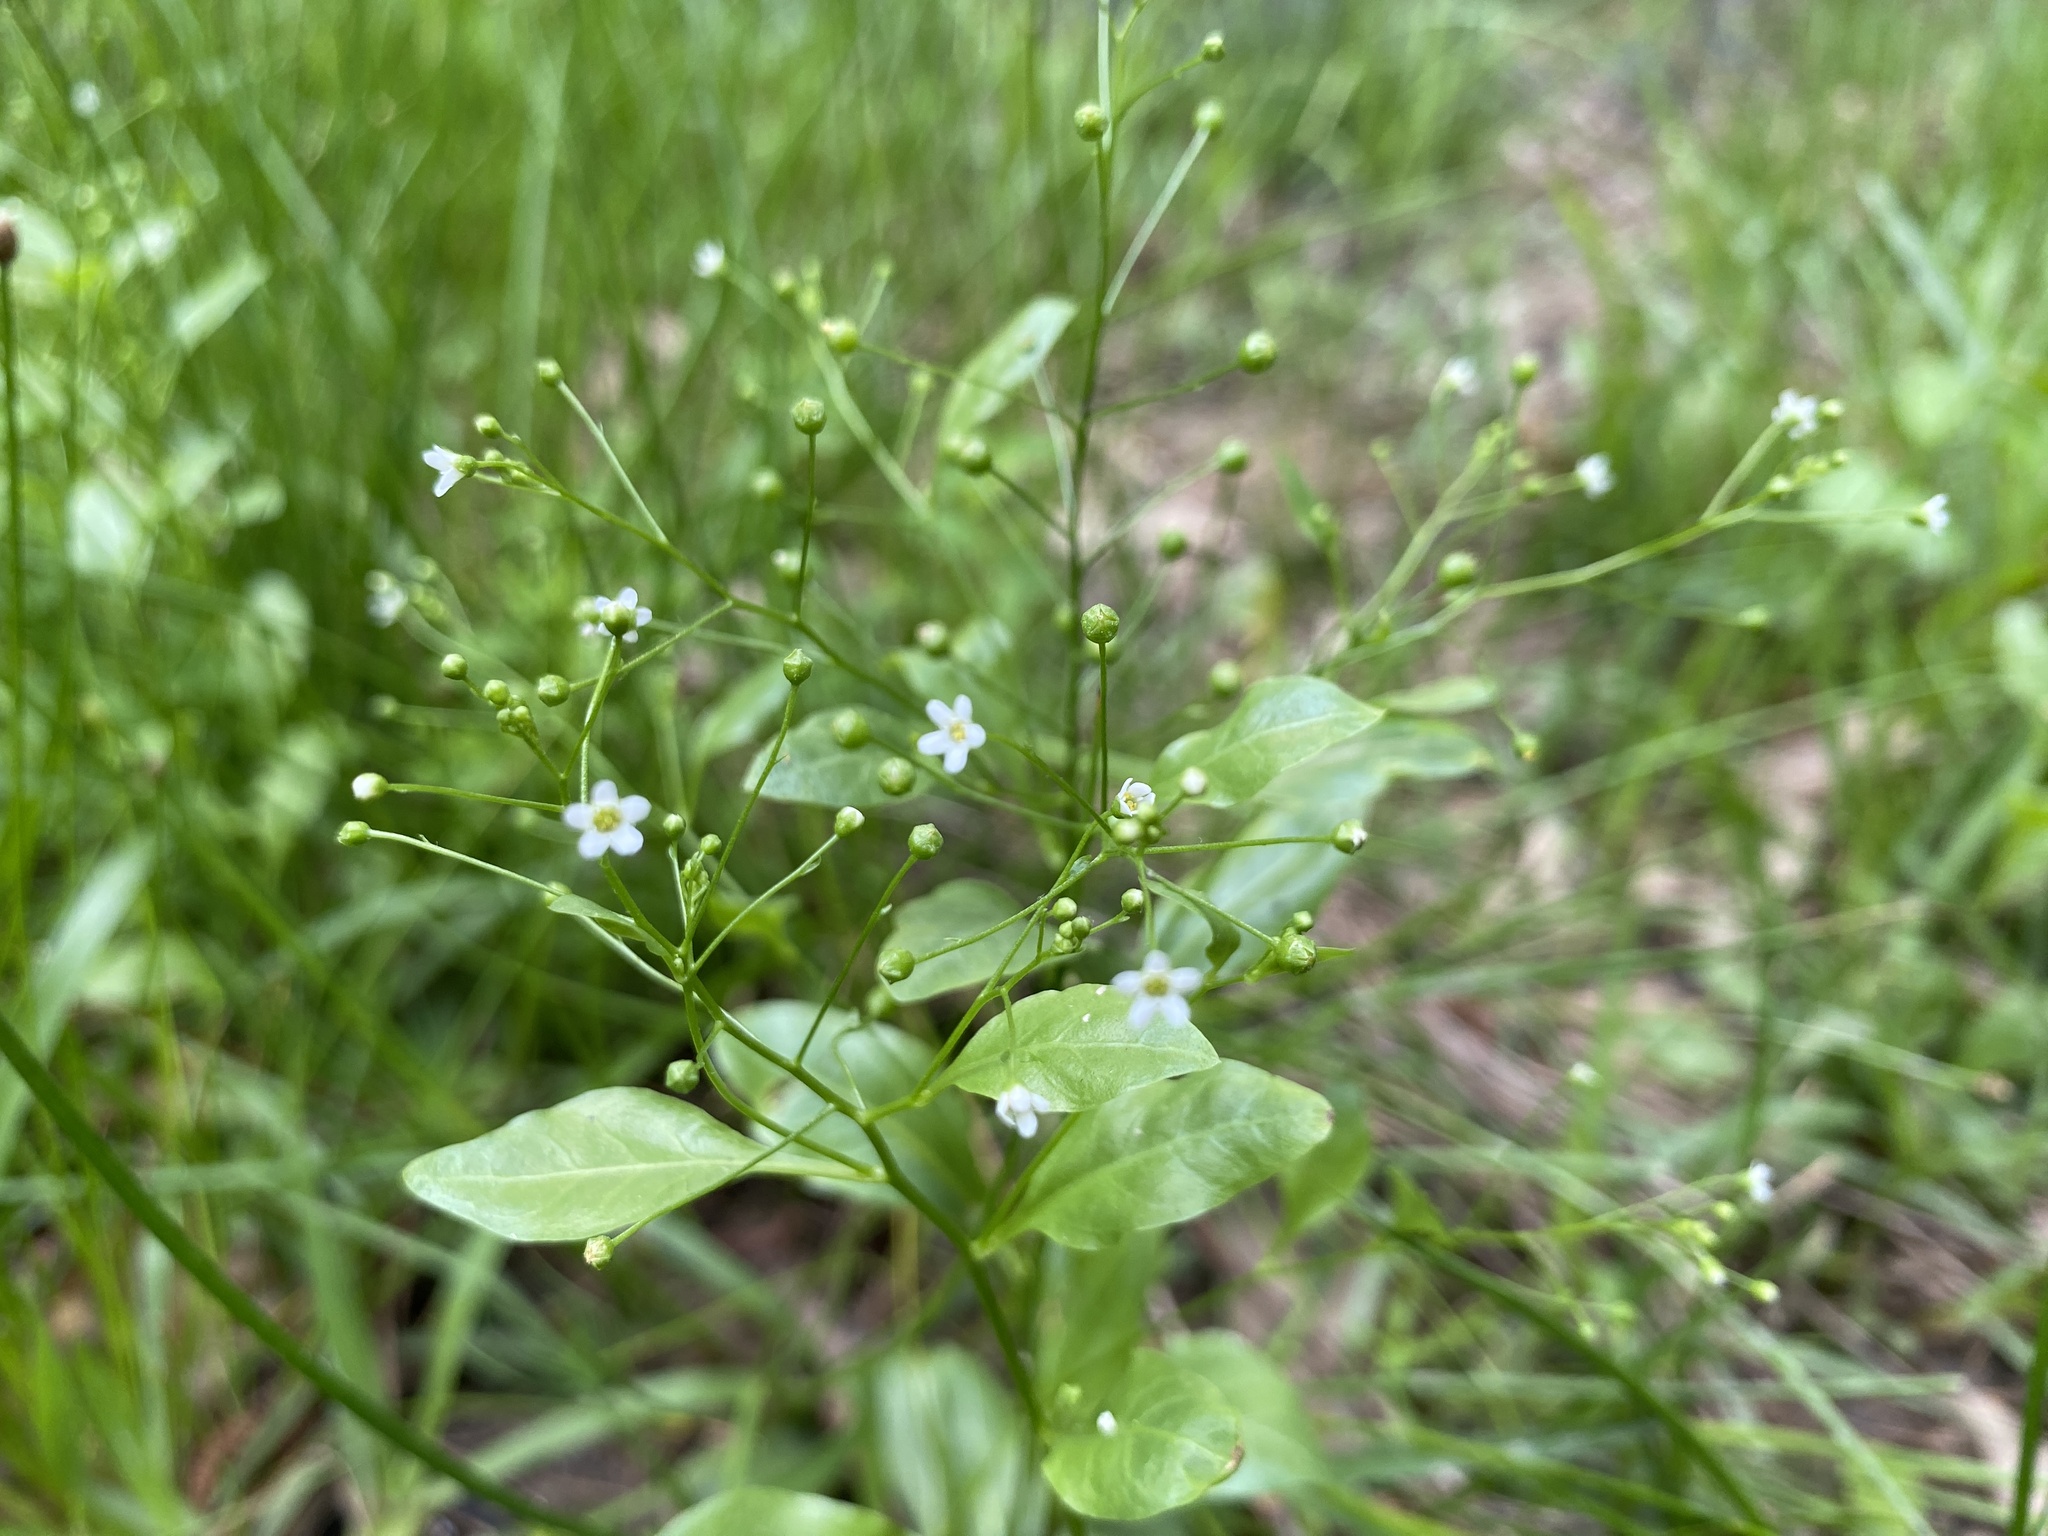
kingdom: Plantae
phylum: Tracheophyta
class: Magnoliopsida
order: Ericales
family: Primulaceae
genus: Samolus
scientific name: Samolus parviflorus
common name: False water pimpernel
